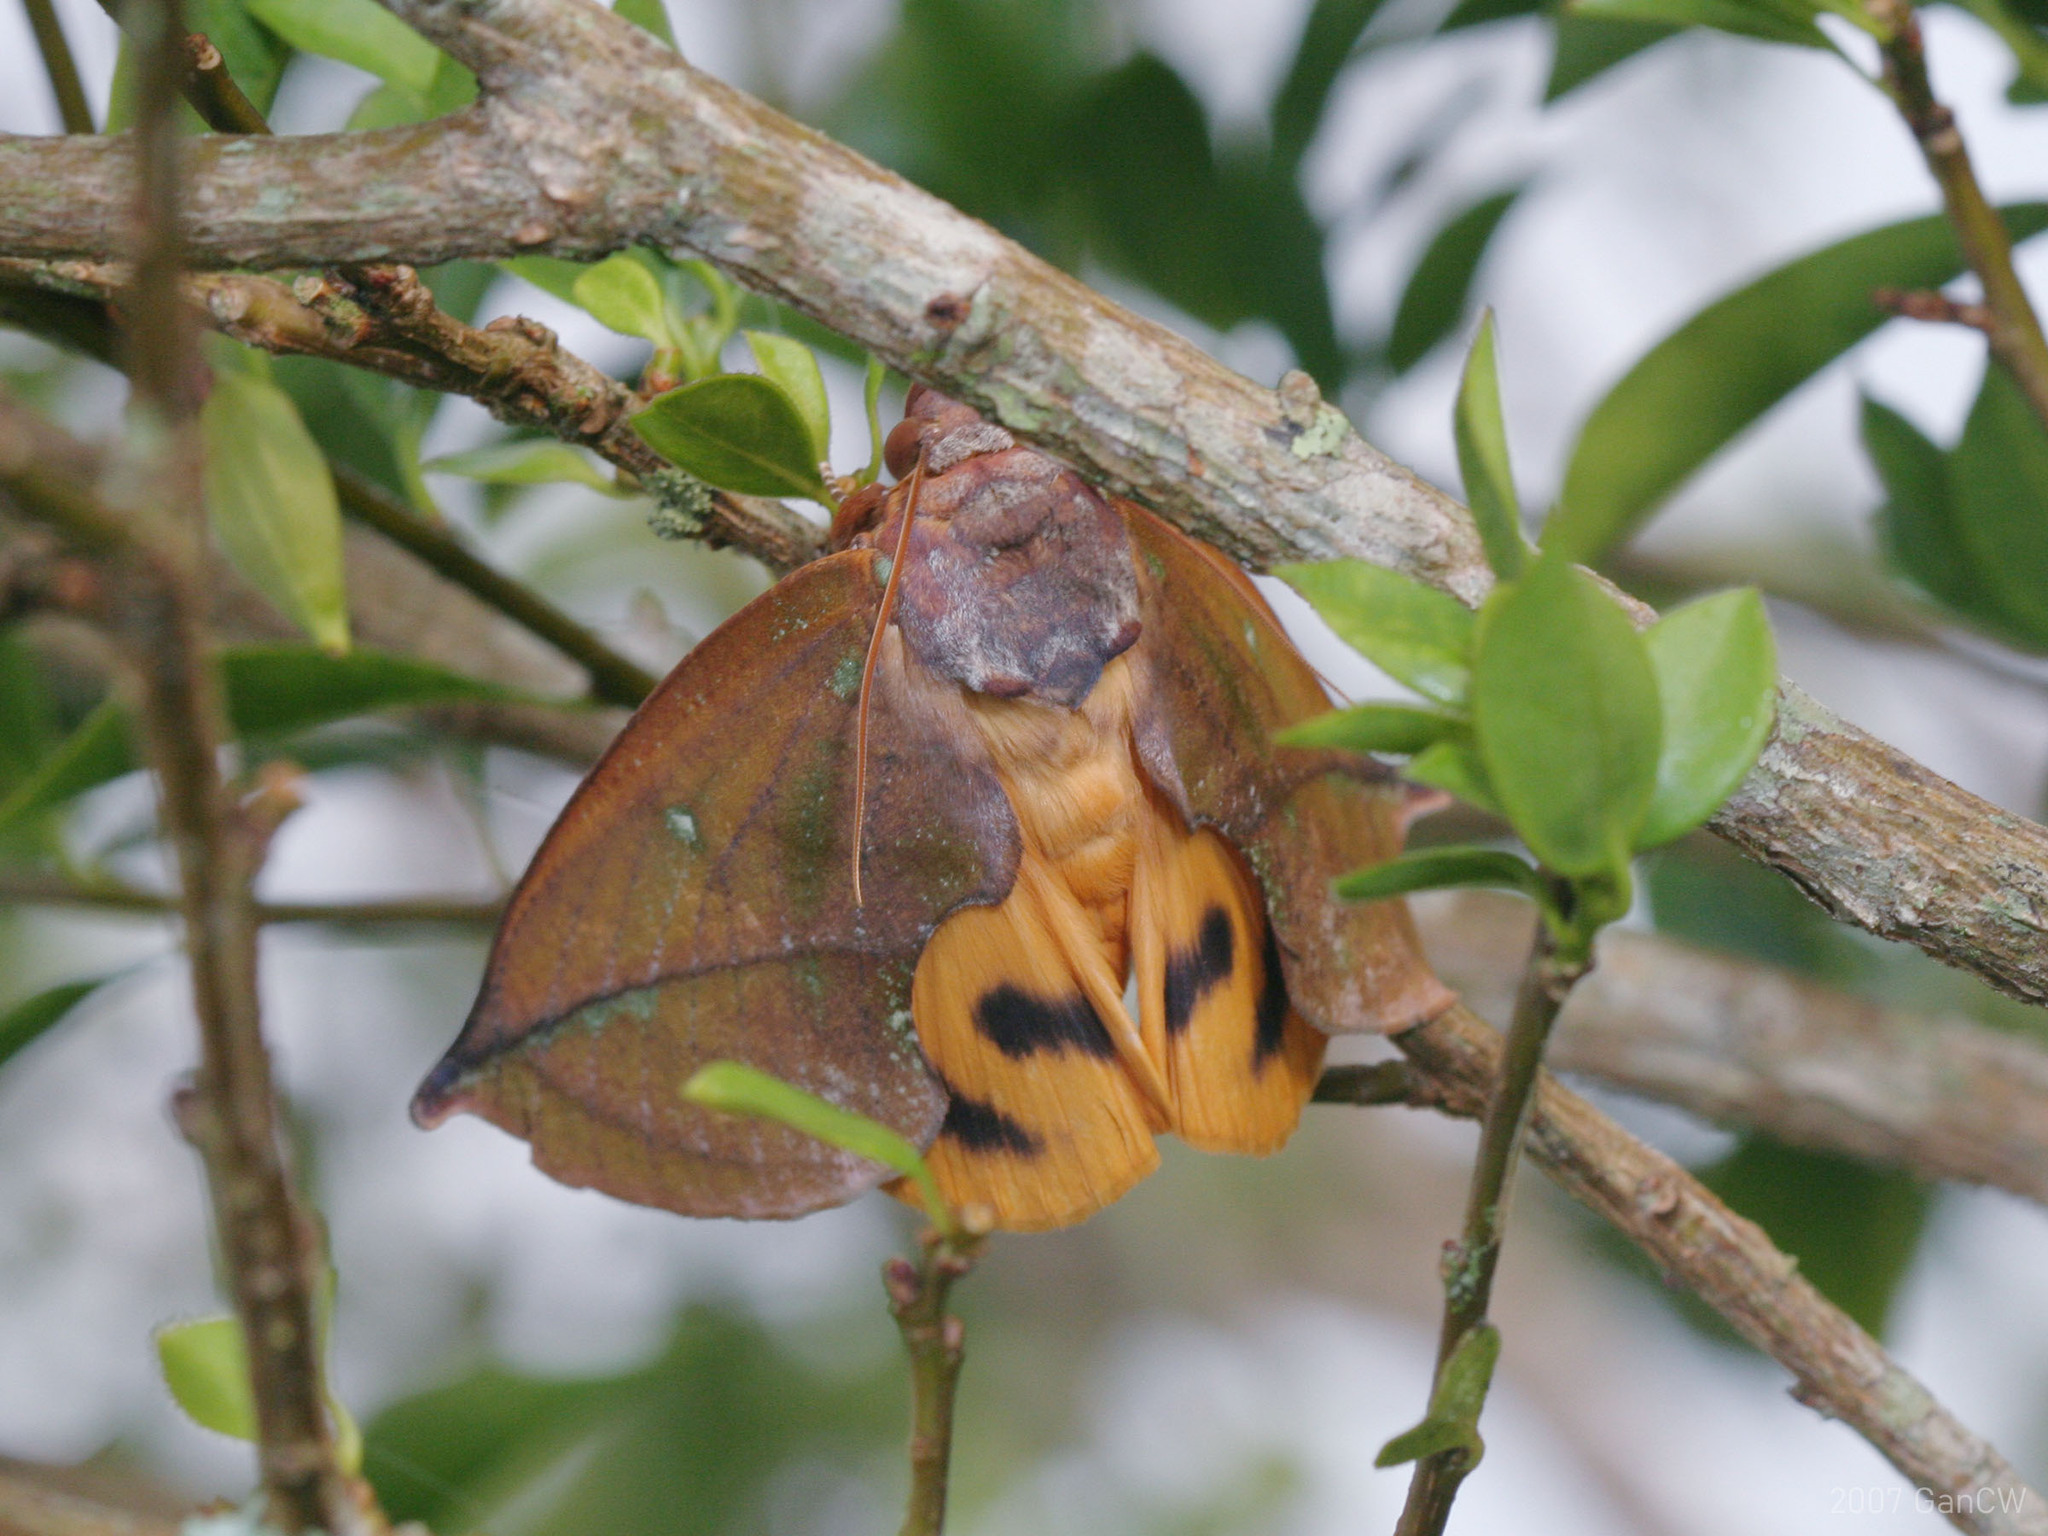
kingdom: Animalia
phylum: Arthropoda
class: Insecta
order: Lepidoptera
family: Erebidae
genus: Eudocima
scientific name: Eudocima aurantia
